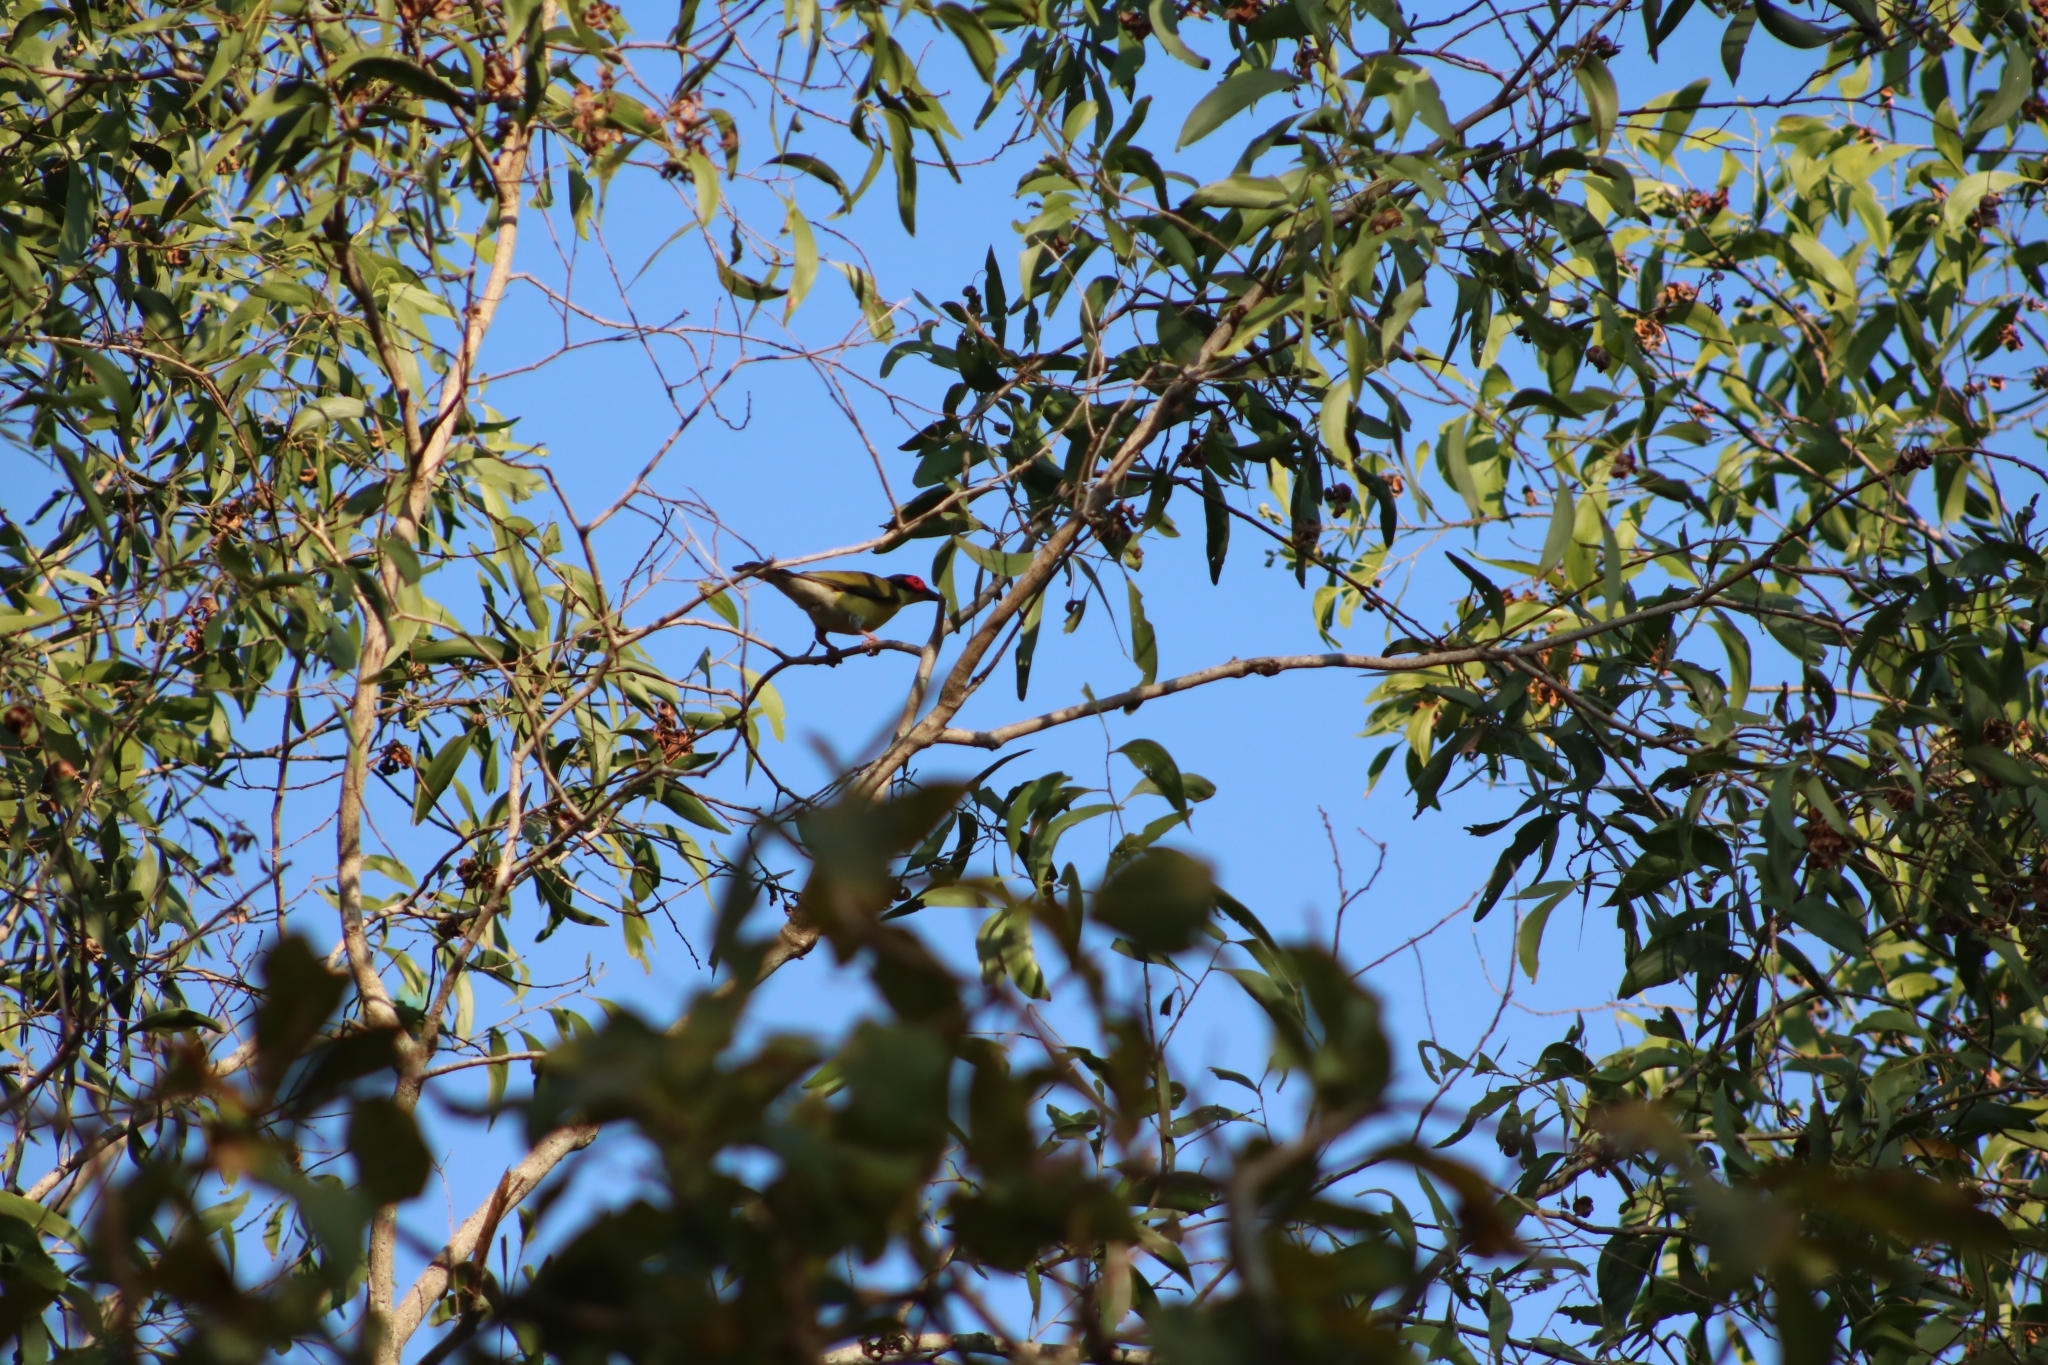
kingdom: Animalia
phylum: Chordata
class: Aves
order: Passeriformes
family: Oriolidae
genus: Sphecotheres
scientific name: Sphecotheres vieilloti
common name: Australasian figbird
